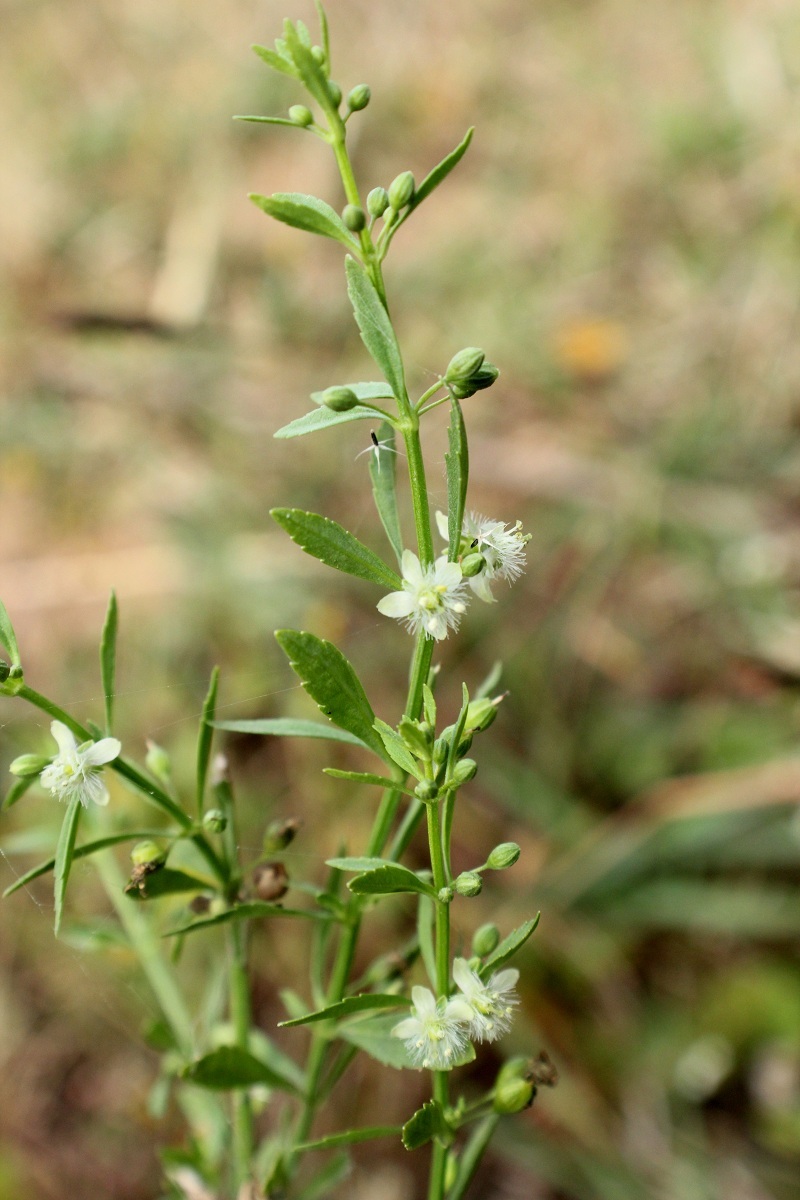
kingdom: Plantae
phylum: Tracheophyta
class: Magnoliopsida
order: Lamiales
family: Plantaginaceae
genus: Scoparia
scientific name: Scoparia dulcis
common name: Scoparia-weed
